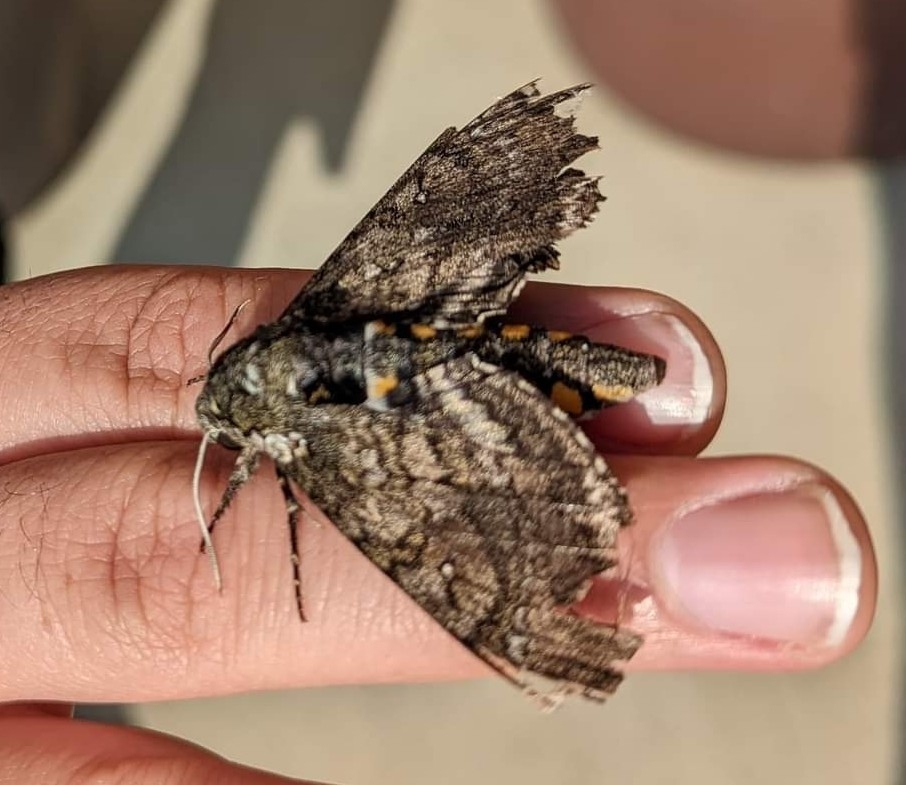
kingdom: Animalia
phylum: Arthropoda
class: Insecta
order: Lepidoptera
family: Sphingidae
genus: Manduca
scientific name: Manduca sexta
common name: Carolina sphinx
